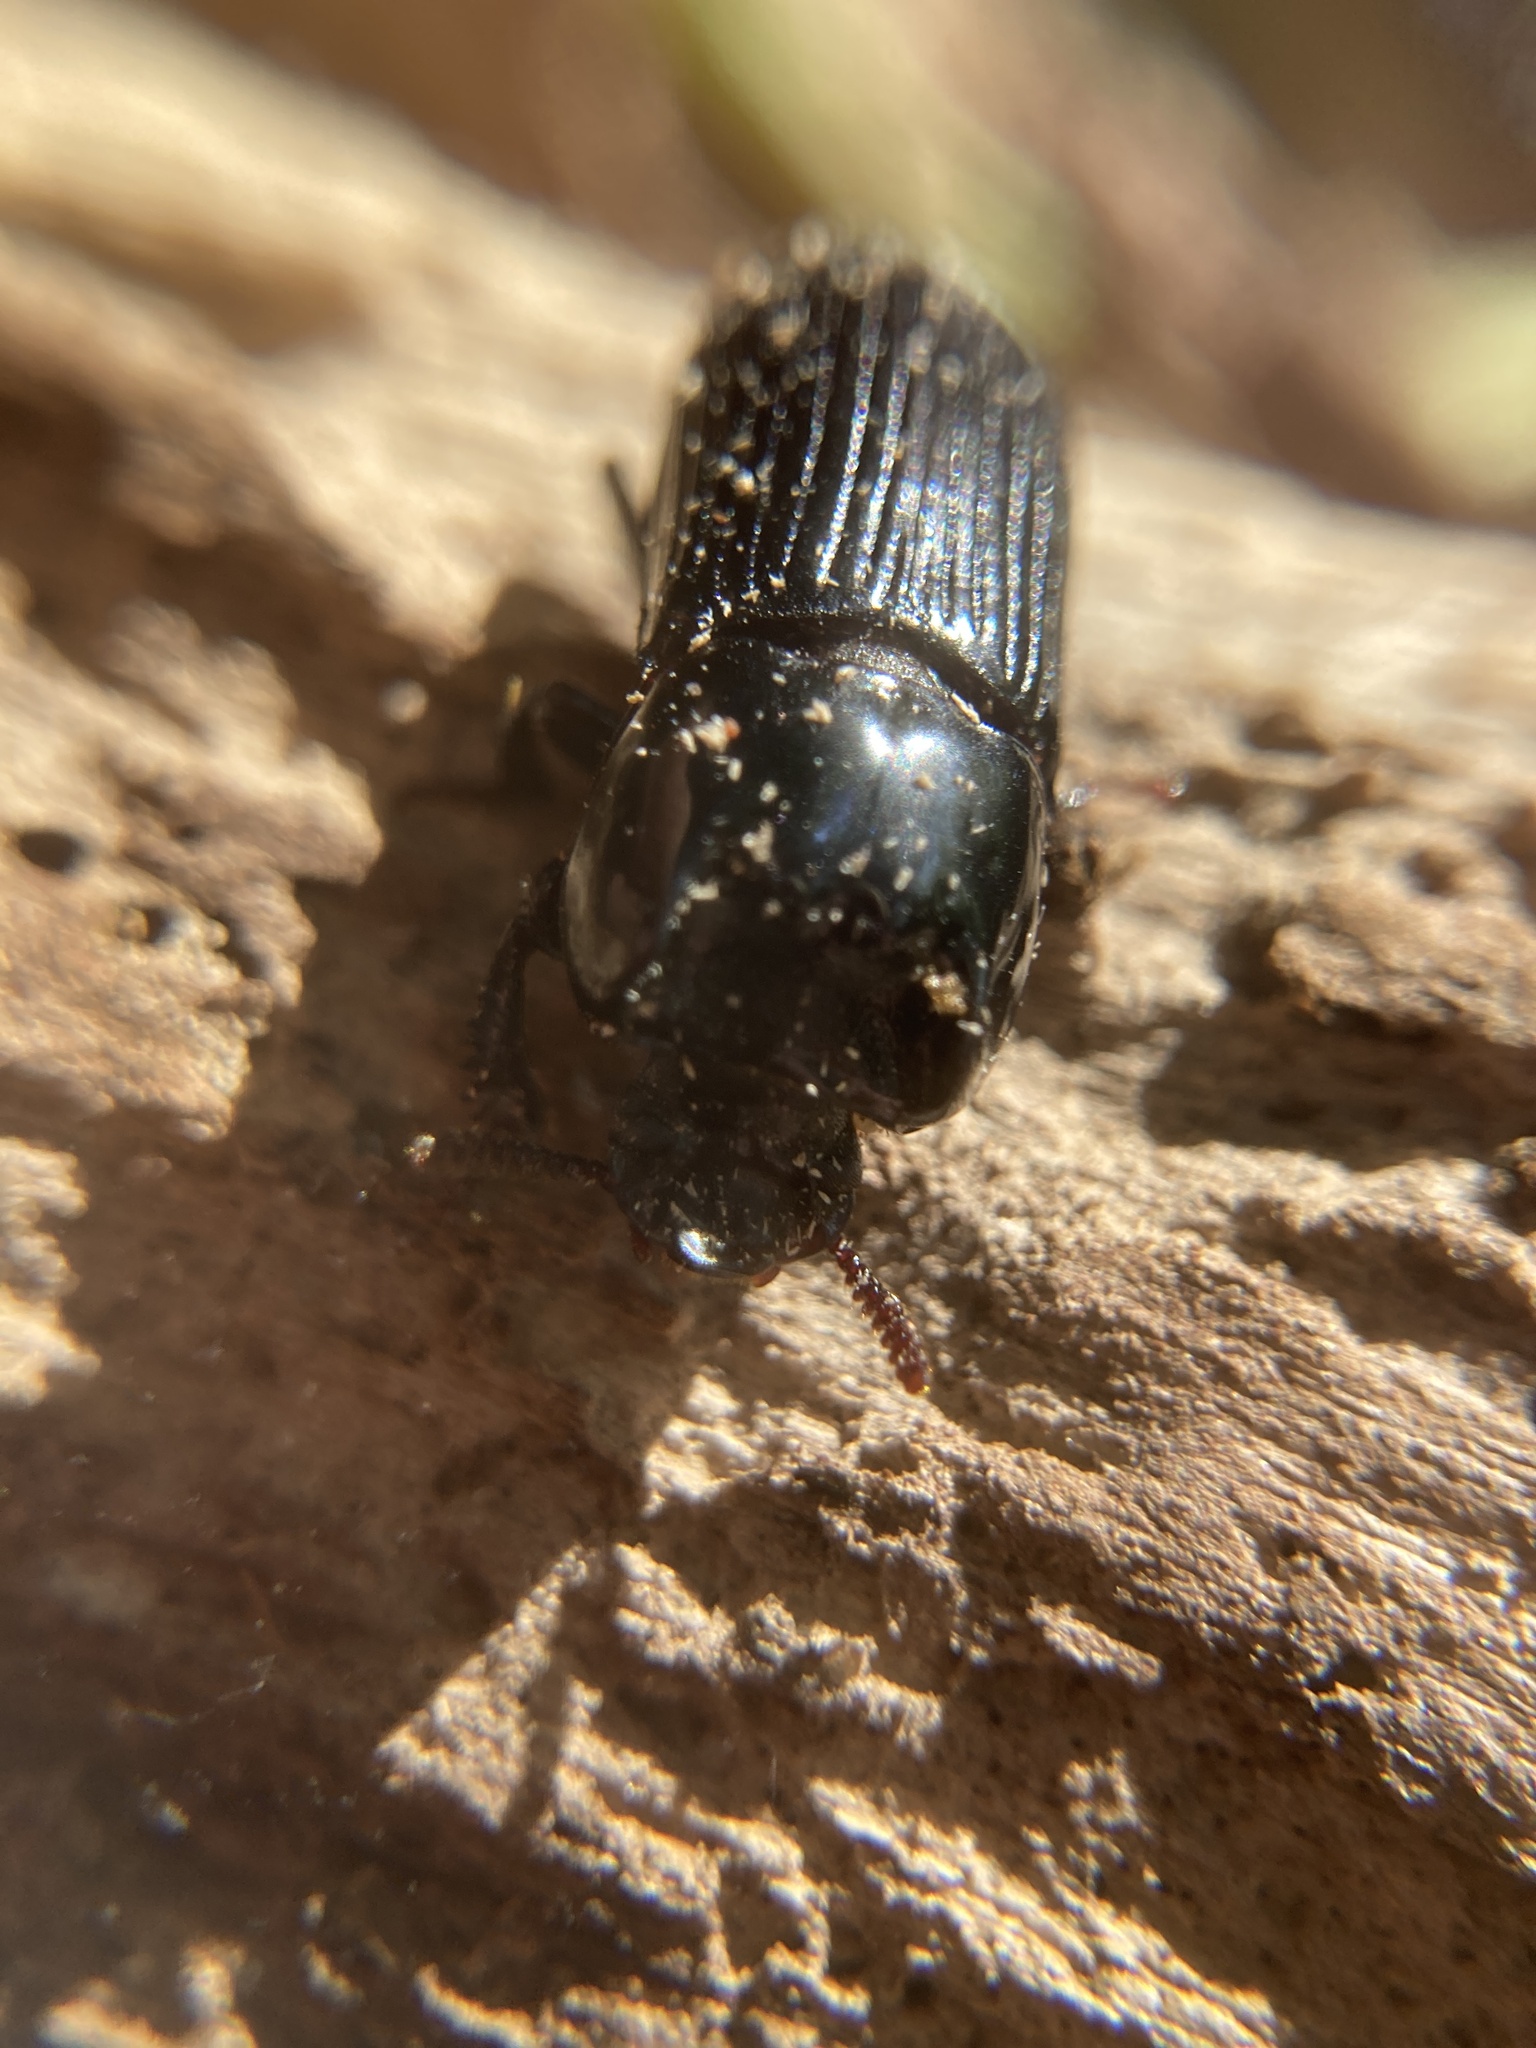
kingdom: Animalia
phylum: Arthropoda
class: Insecta
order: Coleoptera
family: Tenebrionidae
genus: Achthosus
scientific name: Achthosus westwoodi
